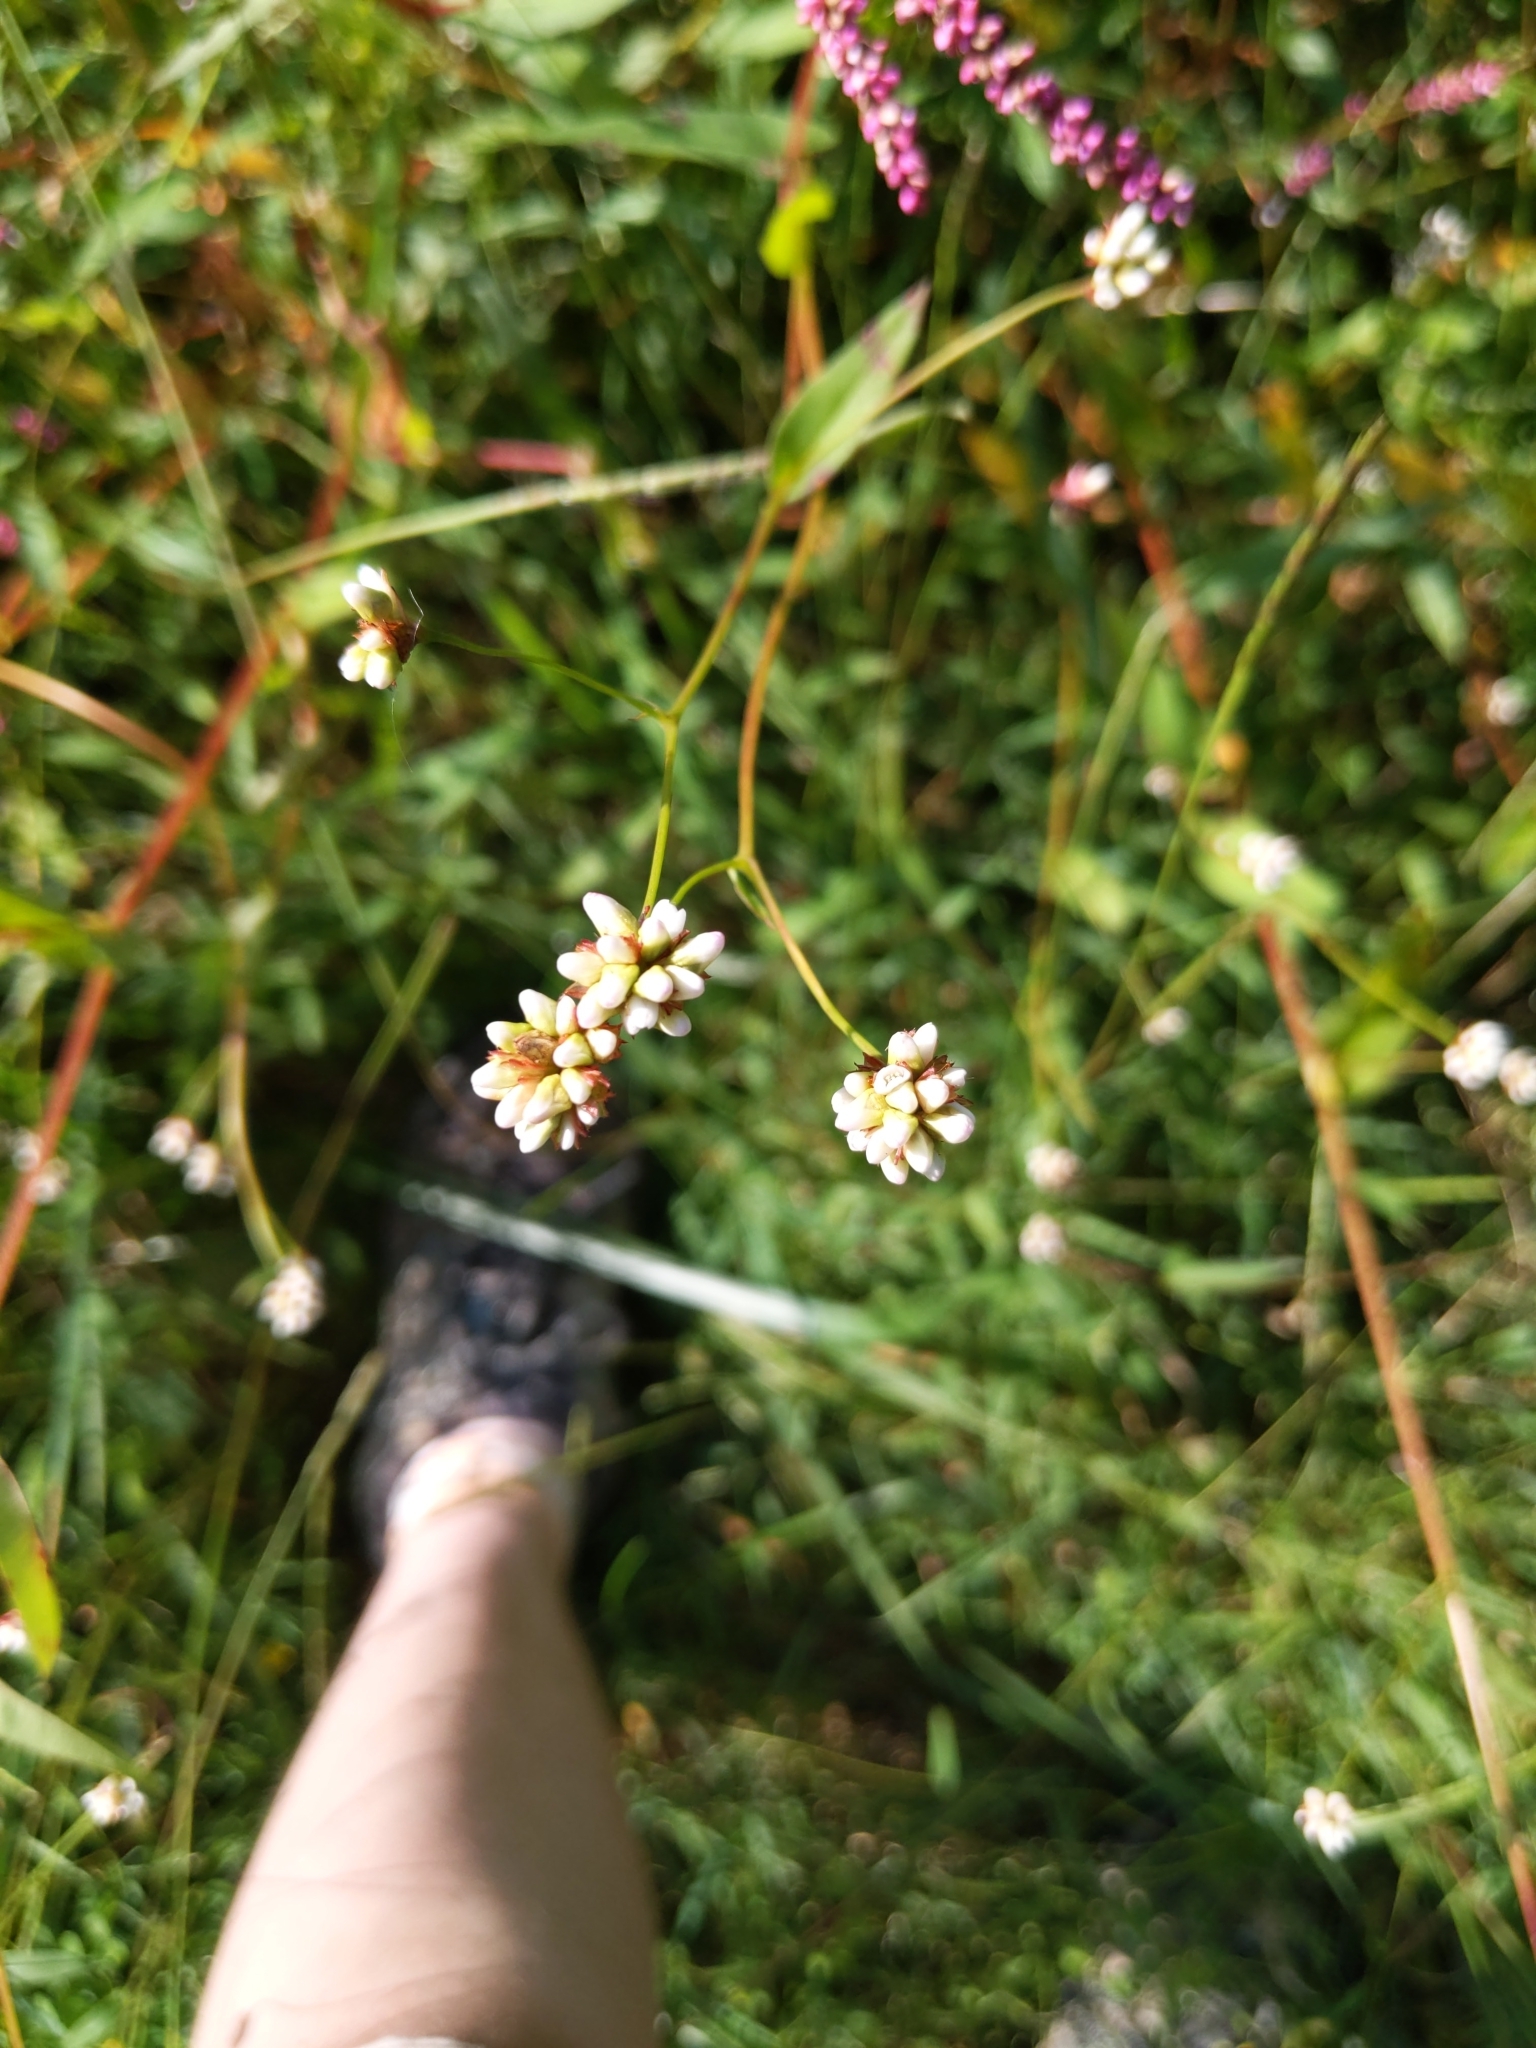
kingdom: Plantae
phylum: Tracheophyta
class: Magnoliopsida
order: Caryophyllales
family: Polygonaceae
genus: Persicaria
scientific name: Persicaria sagittata
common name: American tearthumb
